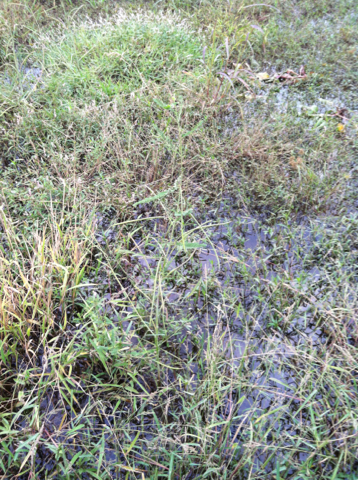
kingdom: Plantae
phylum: Tracheophyta
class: Magnoliopsida
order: Fabales
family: Fabaceae
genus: Sesbania
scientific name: Sesbania herbacea
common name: Bigpod sesbania
